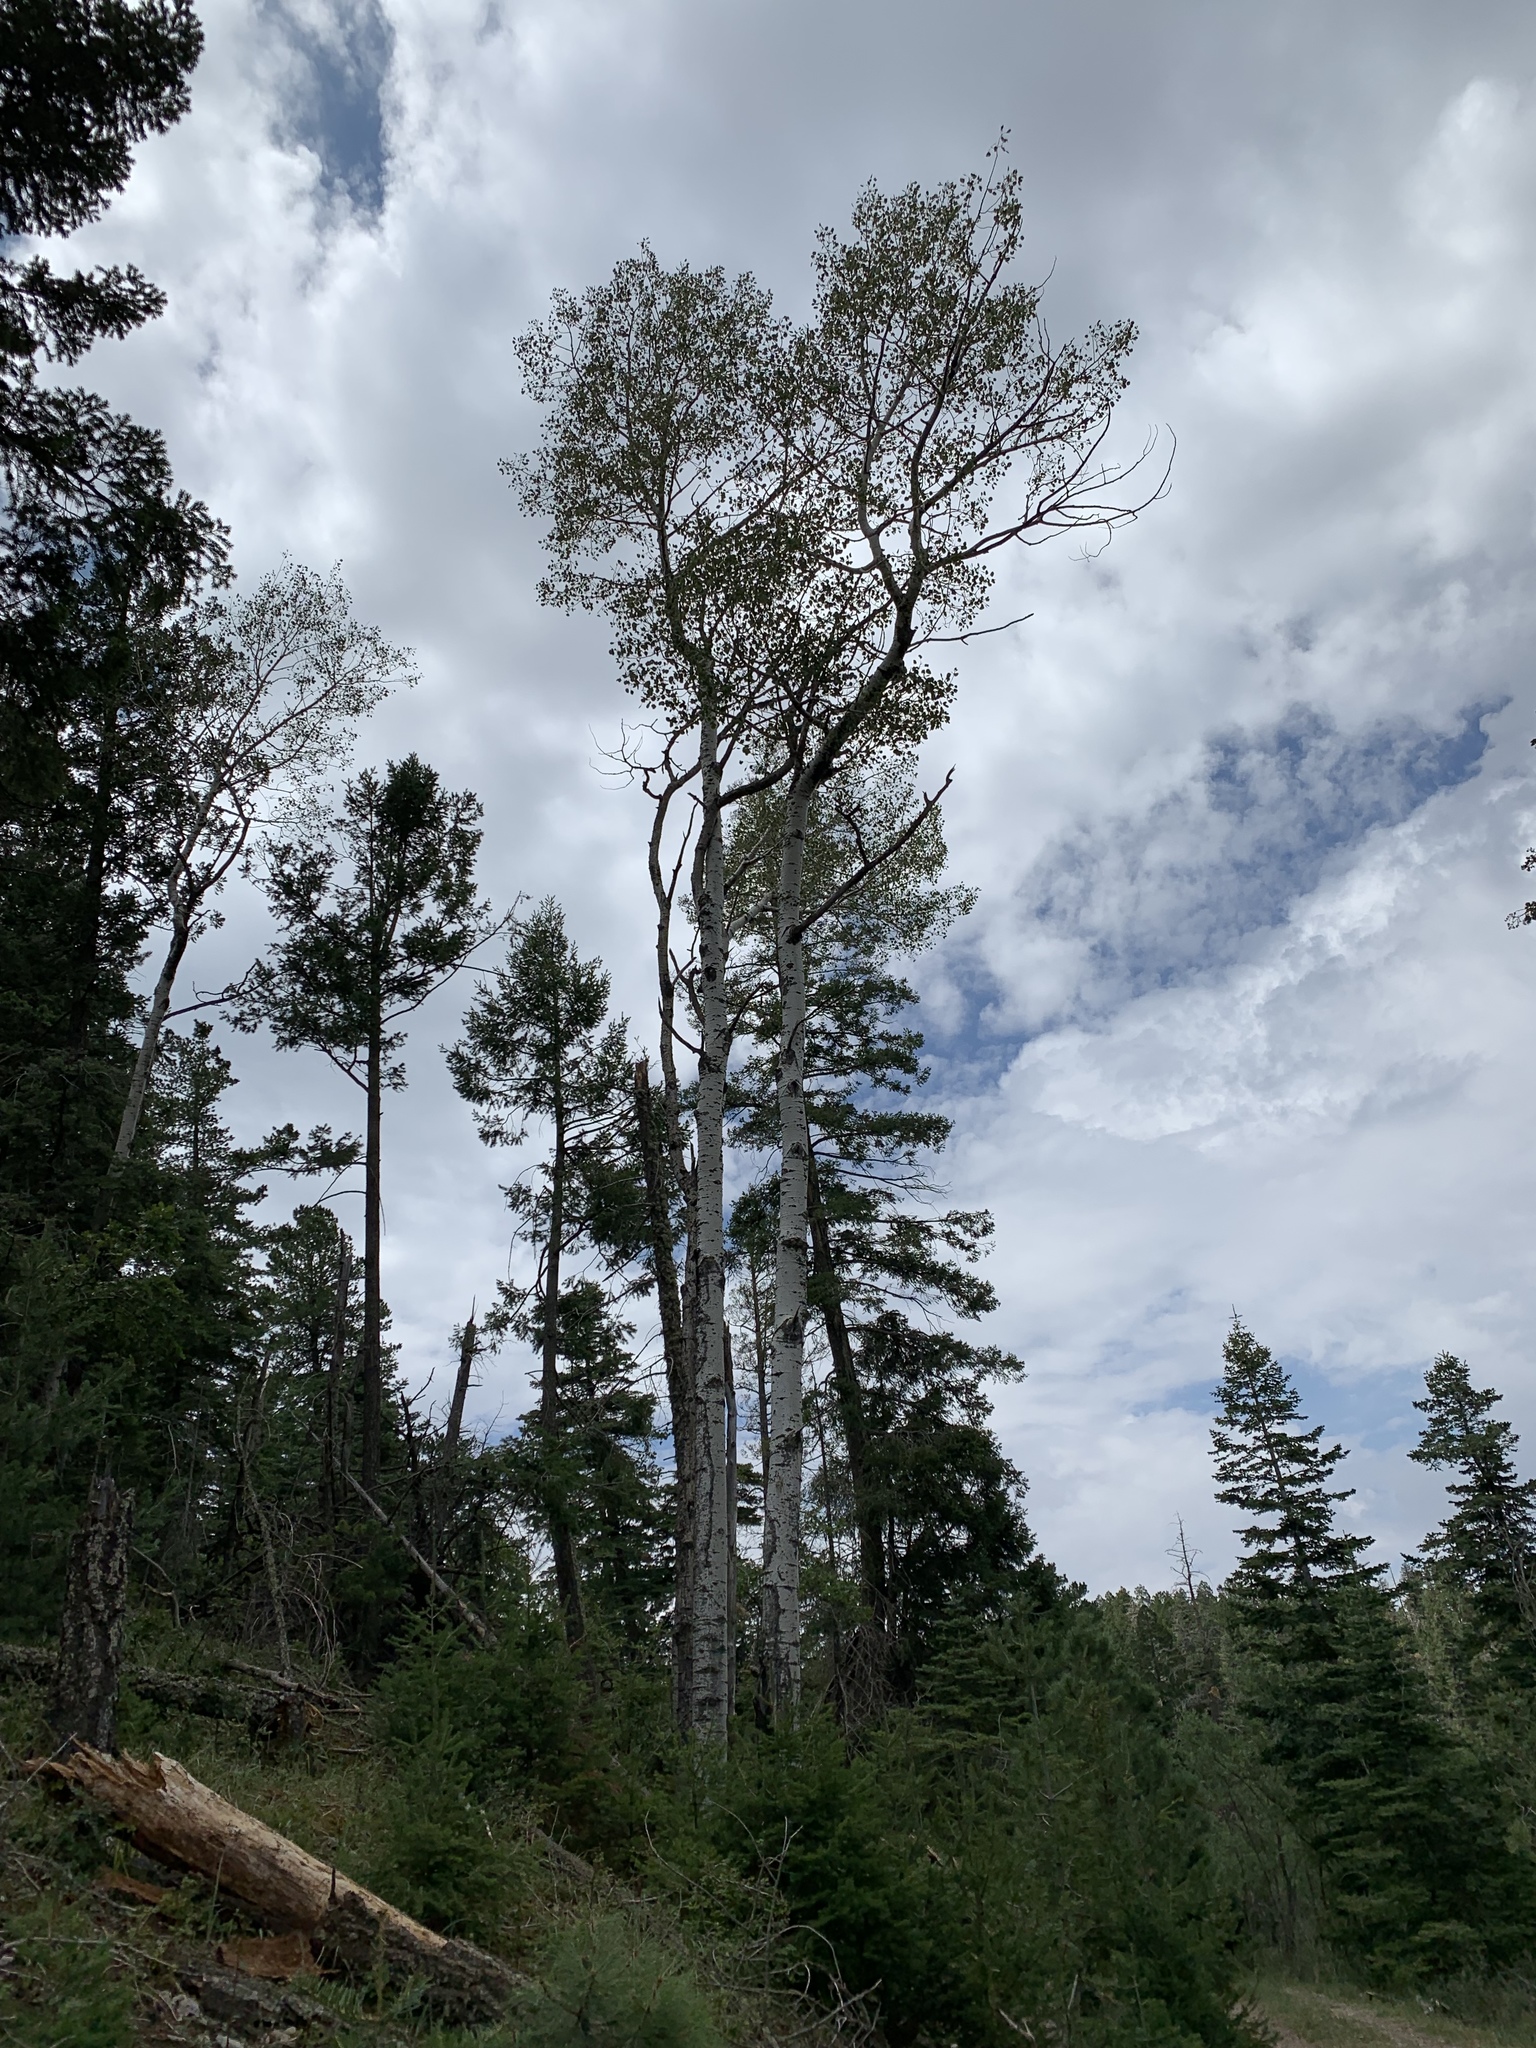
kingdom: Plantae
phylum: Tracheophyta
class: Magnoliopsida
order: Malpighiales
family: Salicaceae
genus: Populus
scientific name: Populus tremuloides
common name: Quaking aspen
